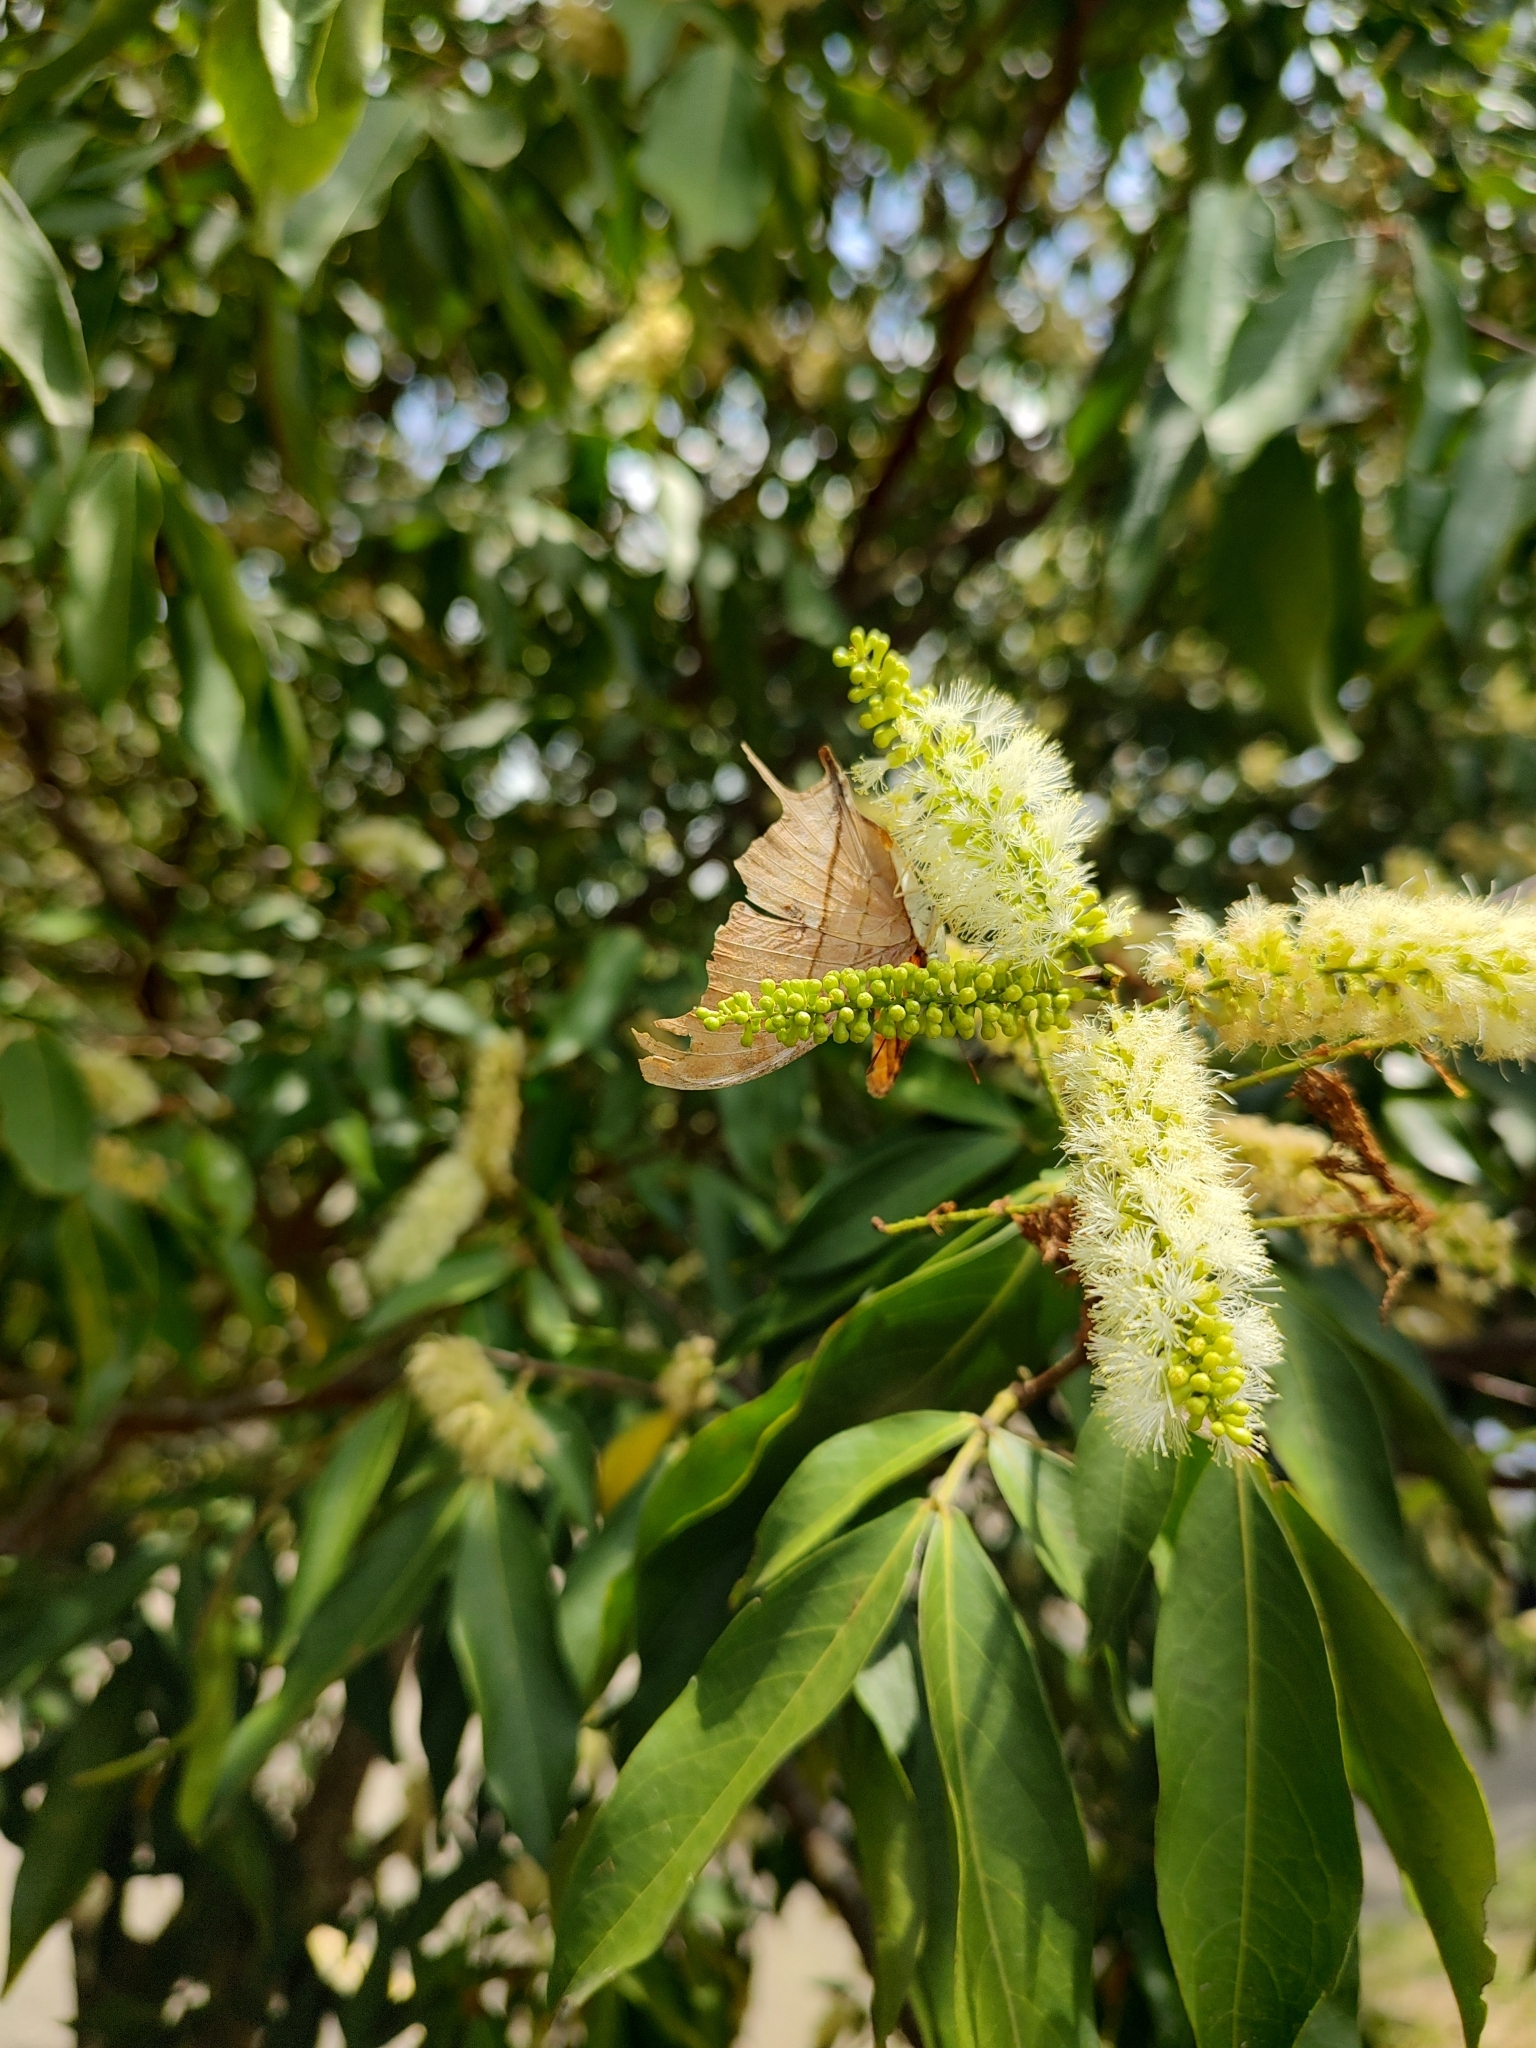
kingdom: Animalia
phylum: Arthropoda
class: Insecta
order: Lepidoptera
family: Nymphalidae
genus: Marpesia
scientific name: Marpesia petreus
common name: Red dagger wing
